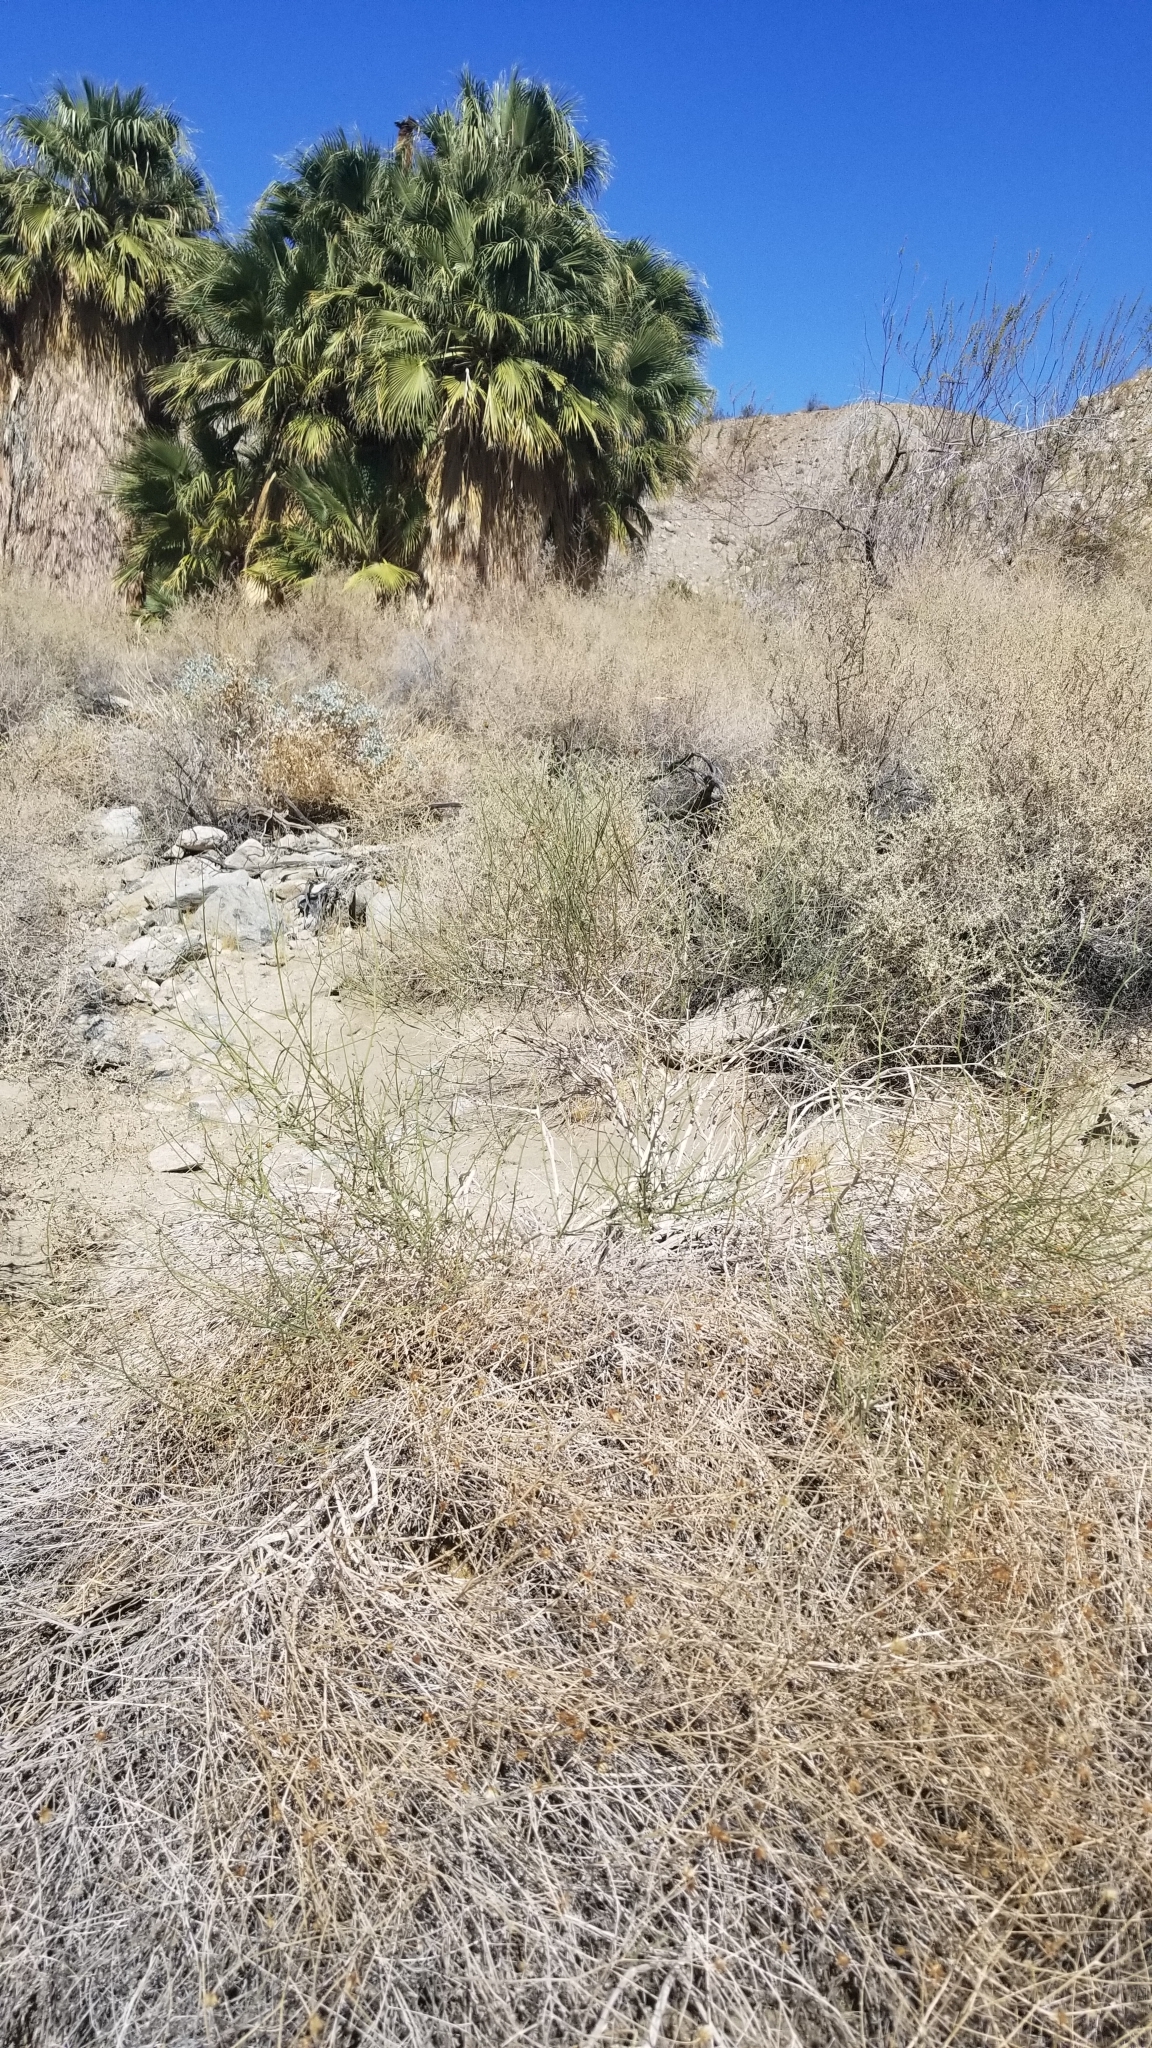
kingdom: Plantae
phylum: Tracheophyta
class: Magnoliopsida
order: Asterales
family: Asteraceae
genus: Bebbia
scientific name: Bebbia juncea
